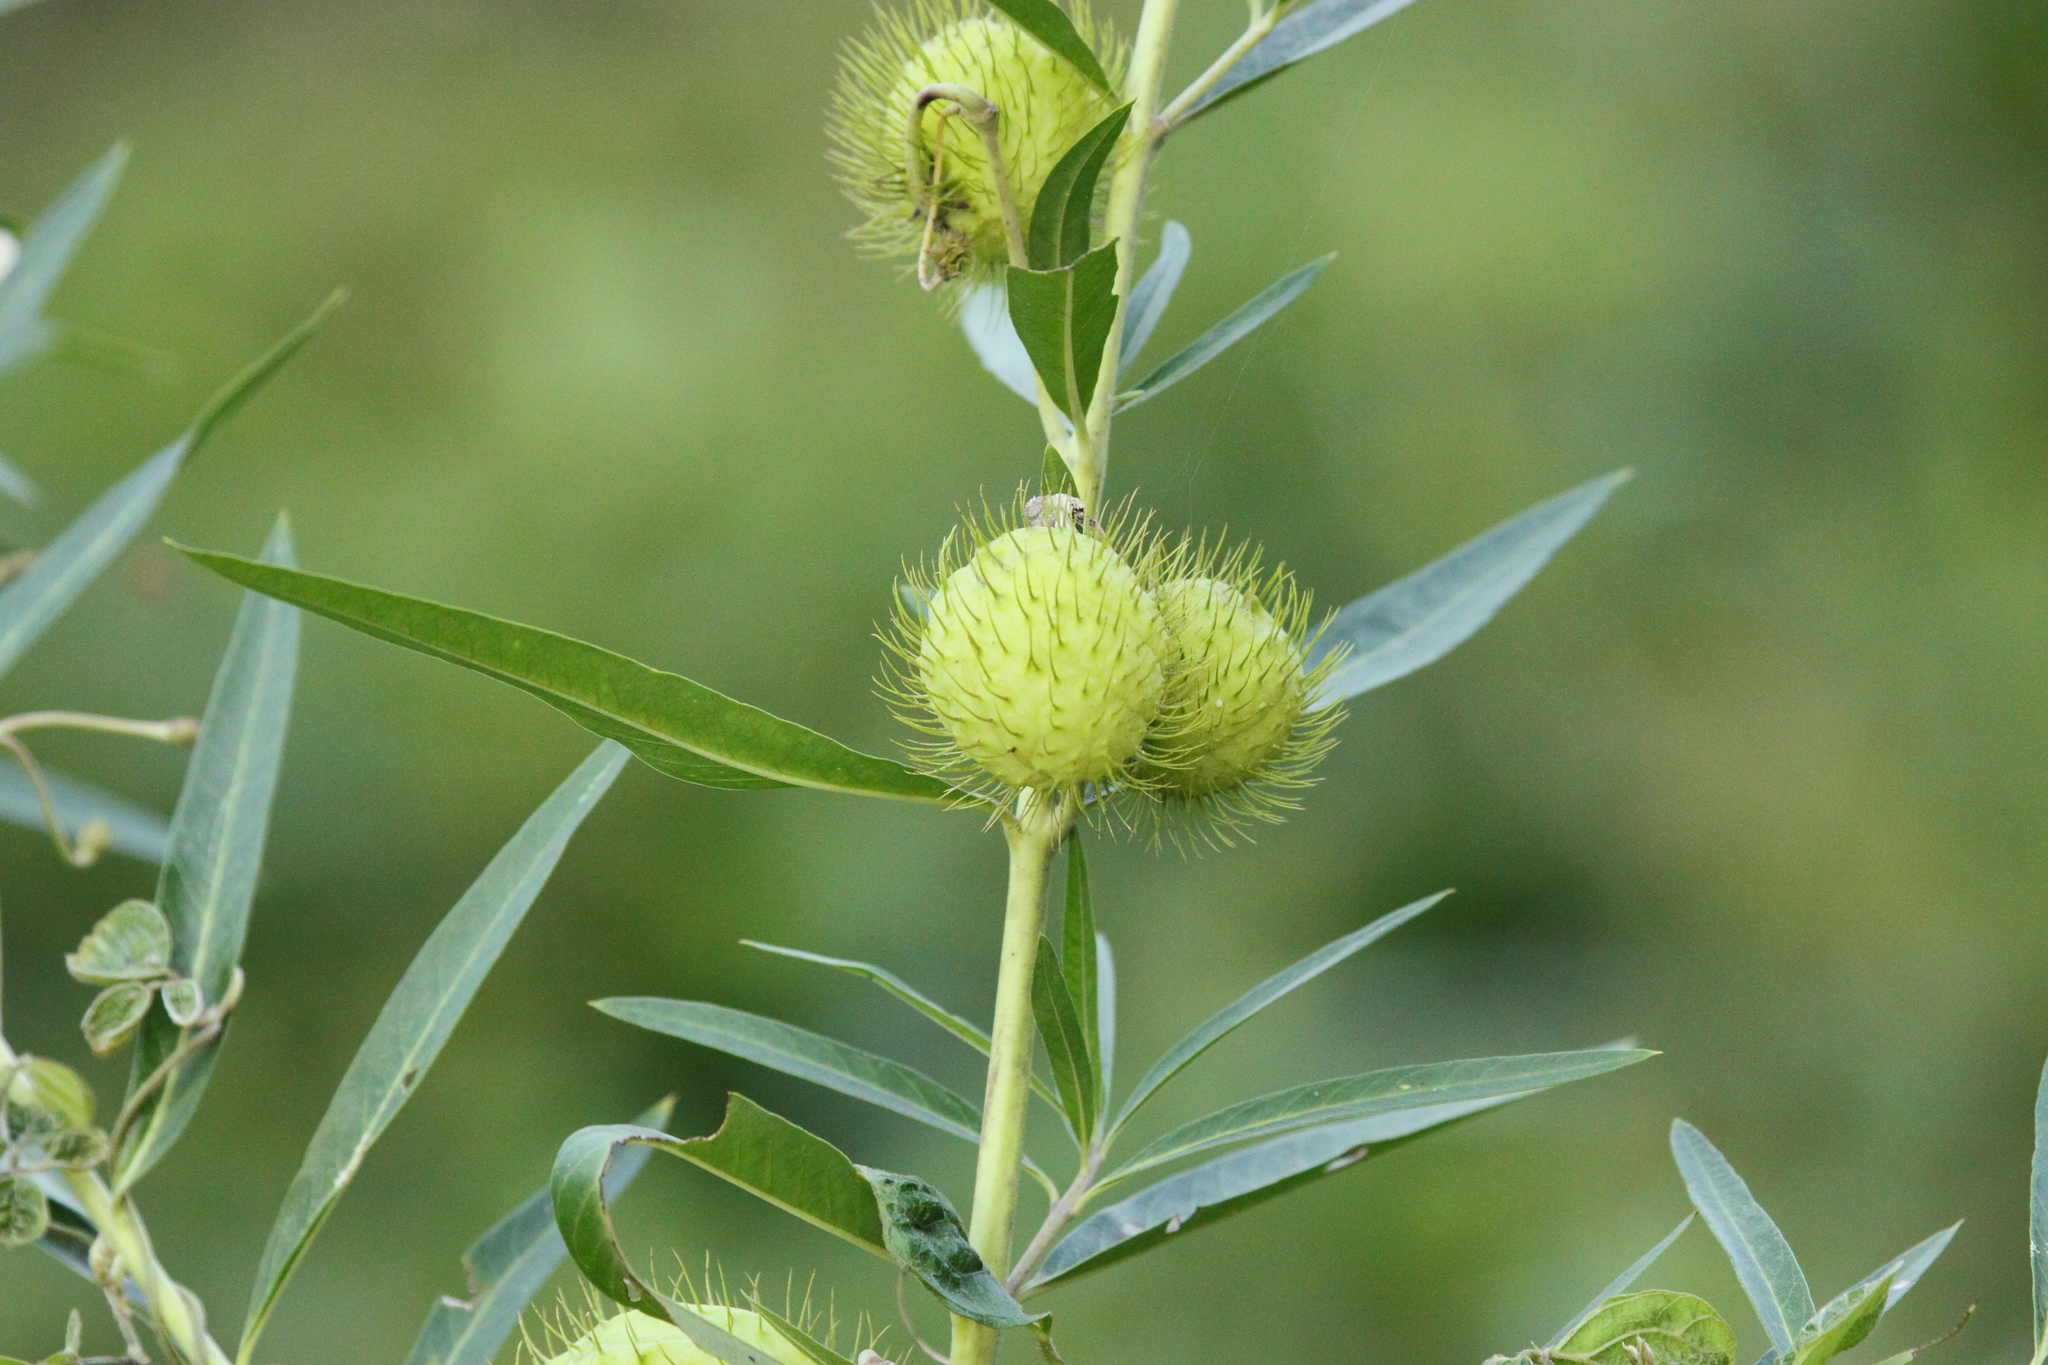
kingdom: Plantae
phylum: Tracheophyta
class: Magnoliopsida
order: Gentianales
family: Apocynaceae
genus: Gomphocarpus
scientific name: Gomphocarpus physocarpus
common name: Balloon cotton bush
